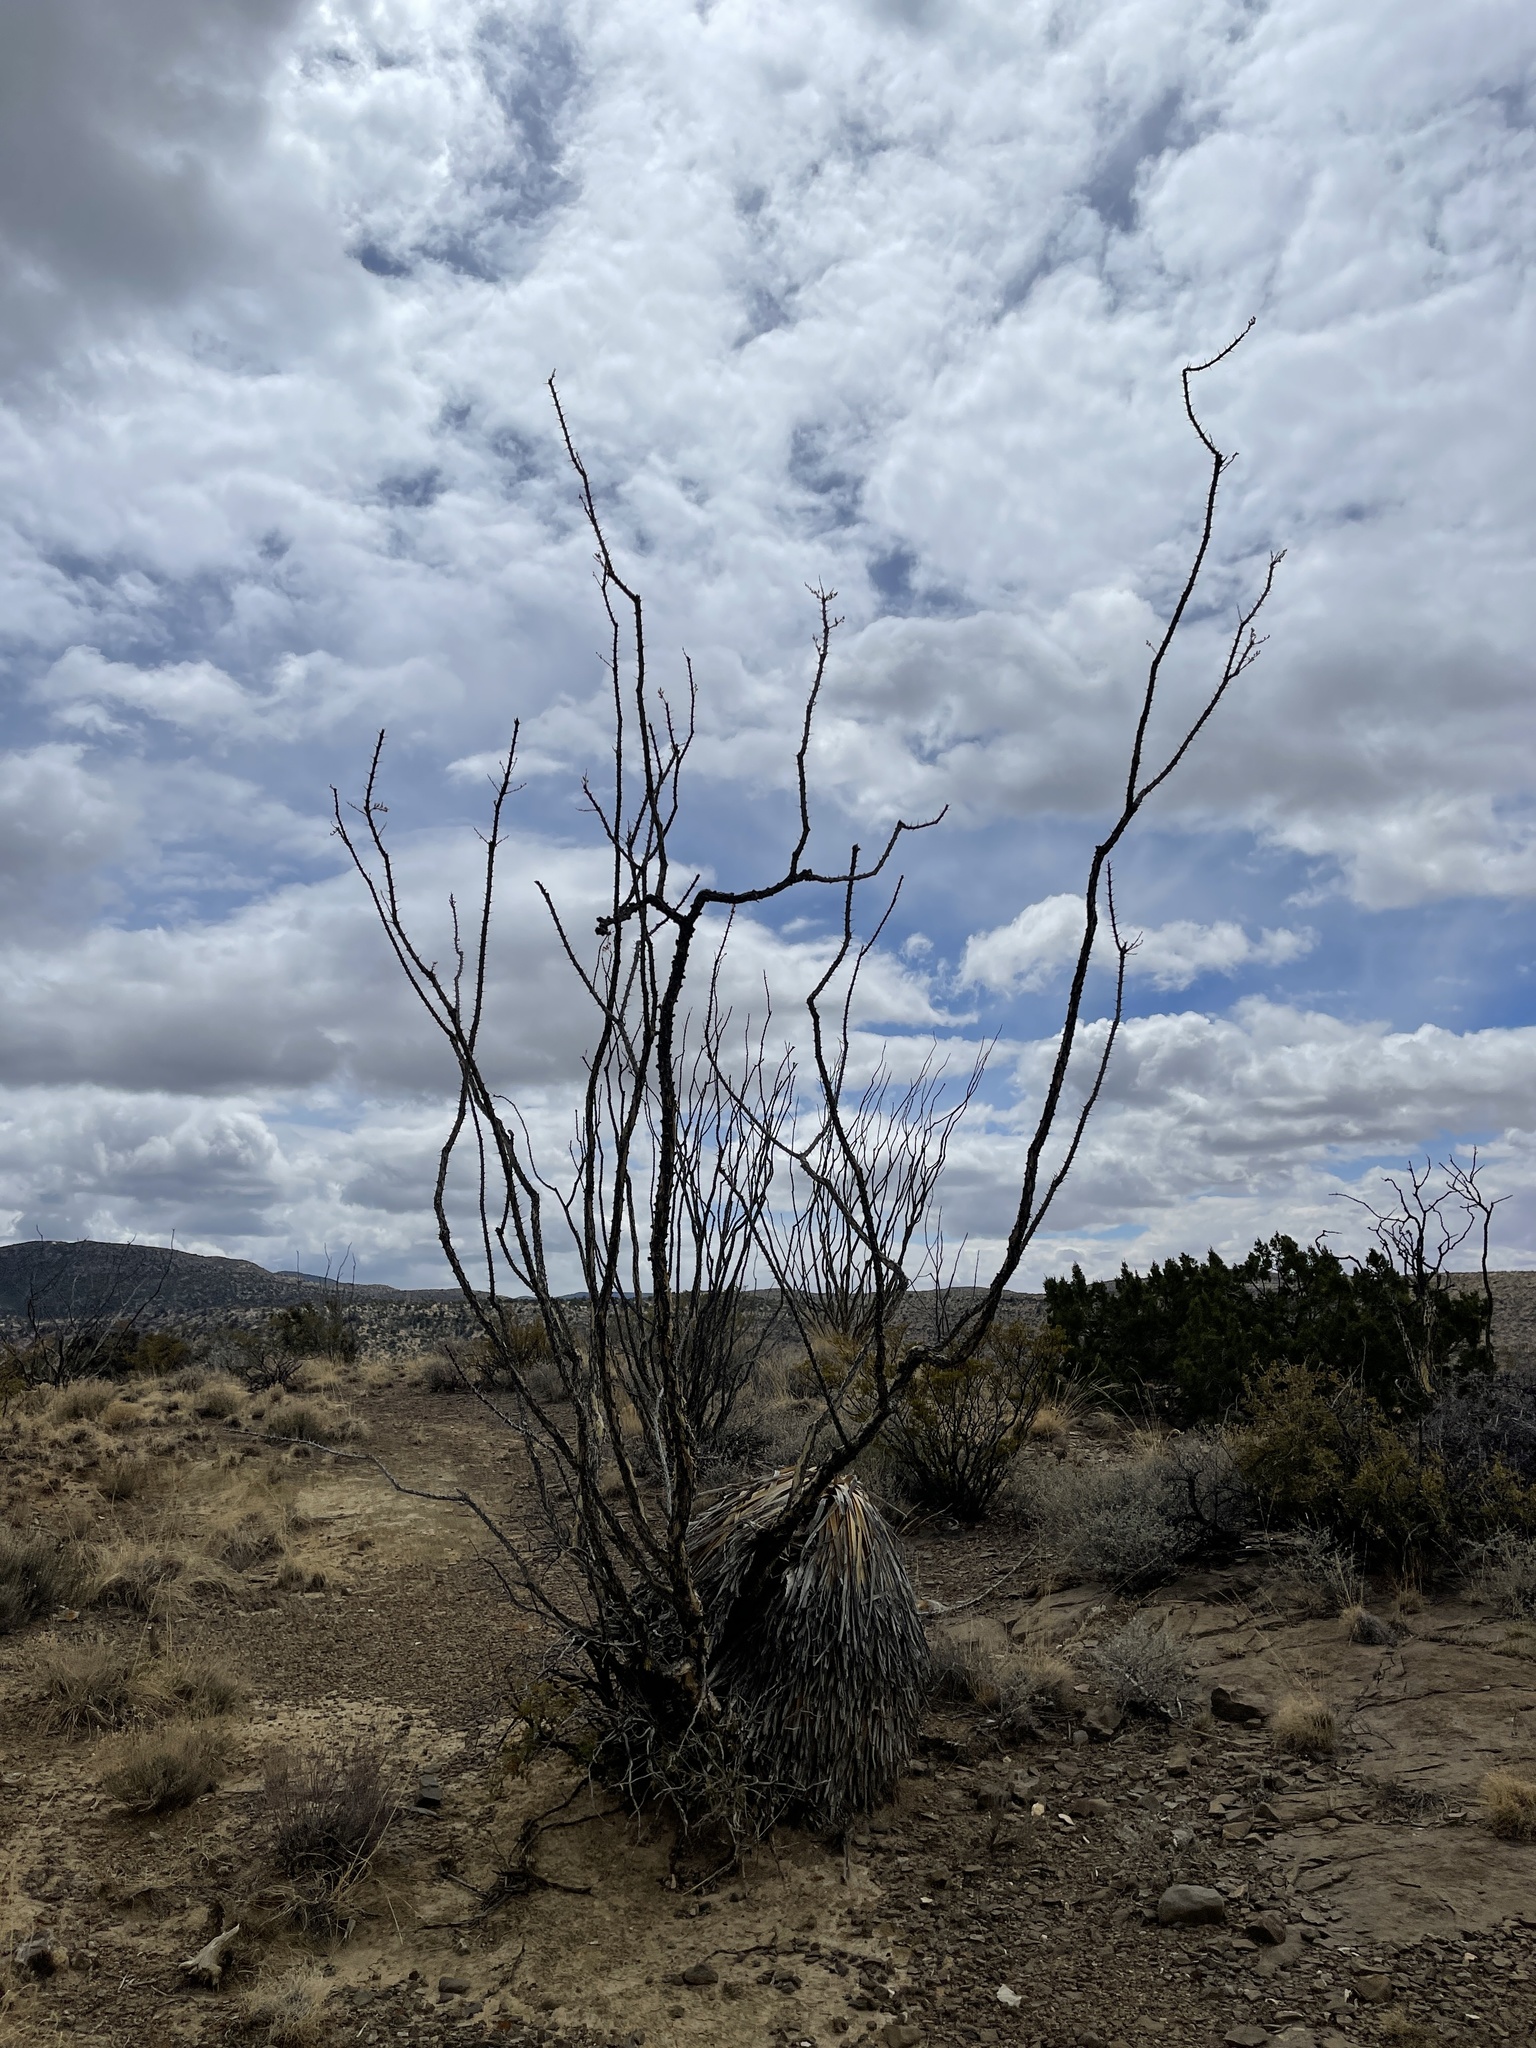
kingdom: Plantae
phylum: Tracheophyta
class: Magnoliopsida
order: Ericales
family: Fouquieriaceae
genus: Fouquieria
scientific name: Fouquieria splendens
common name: Vine-cactus
